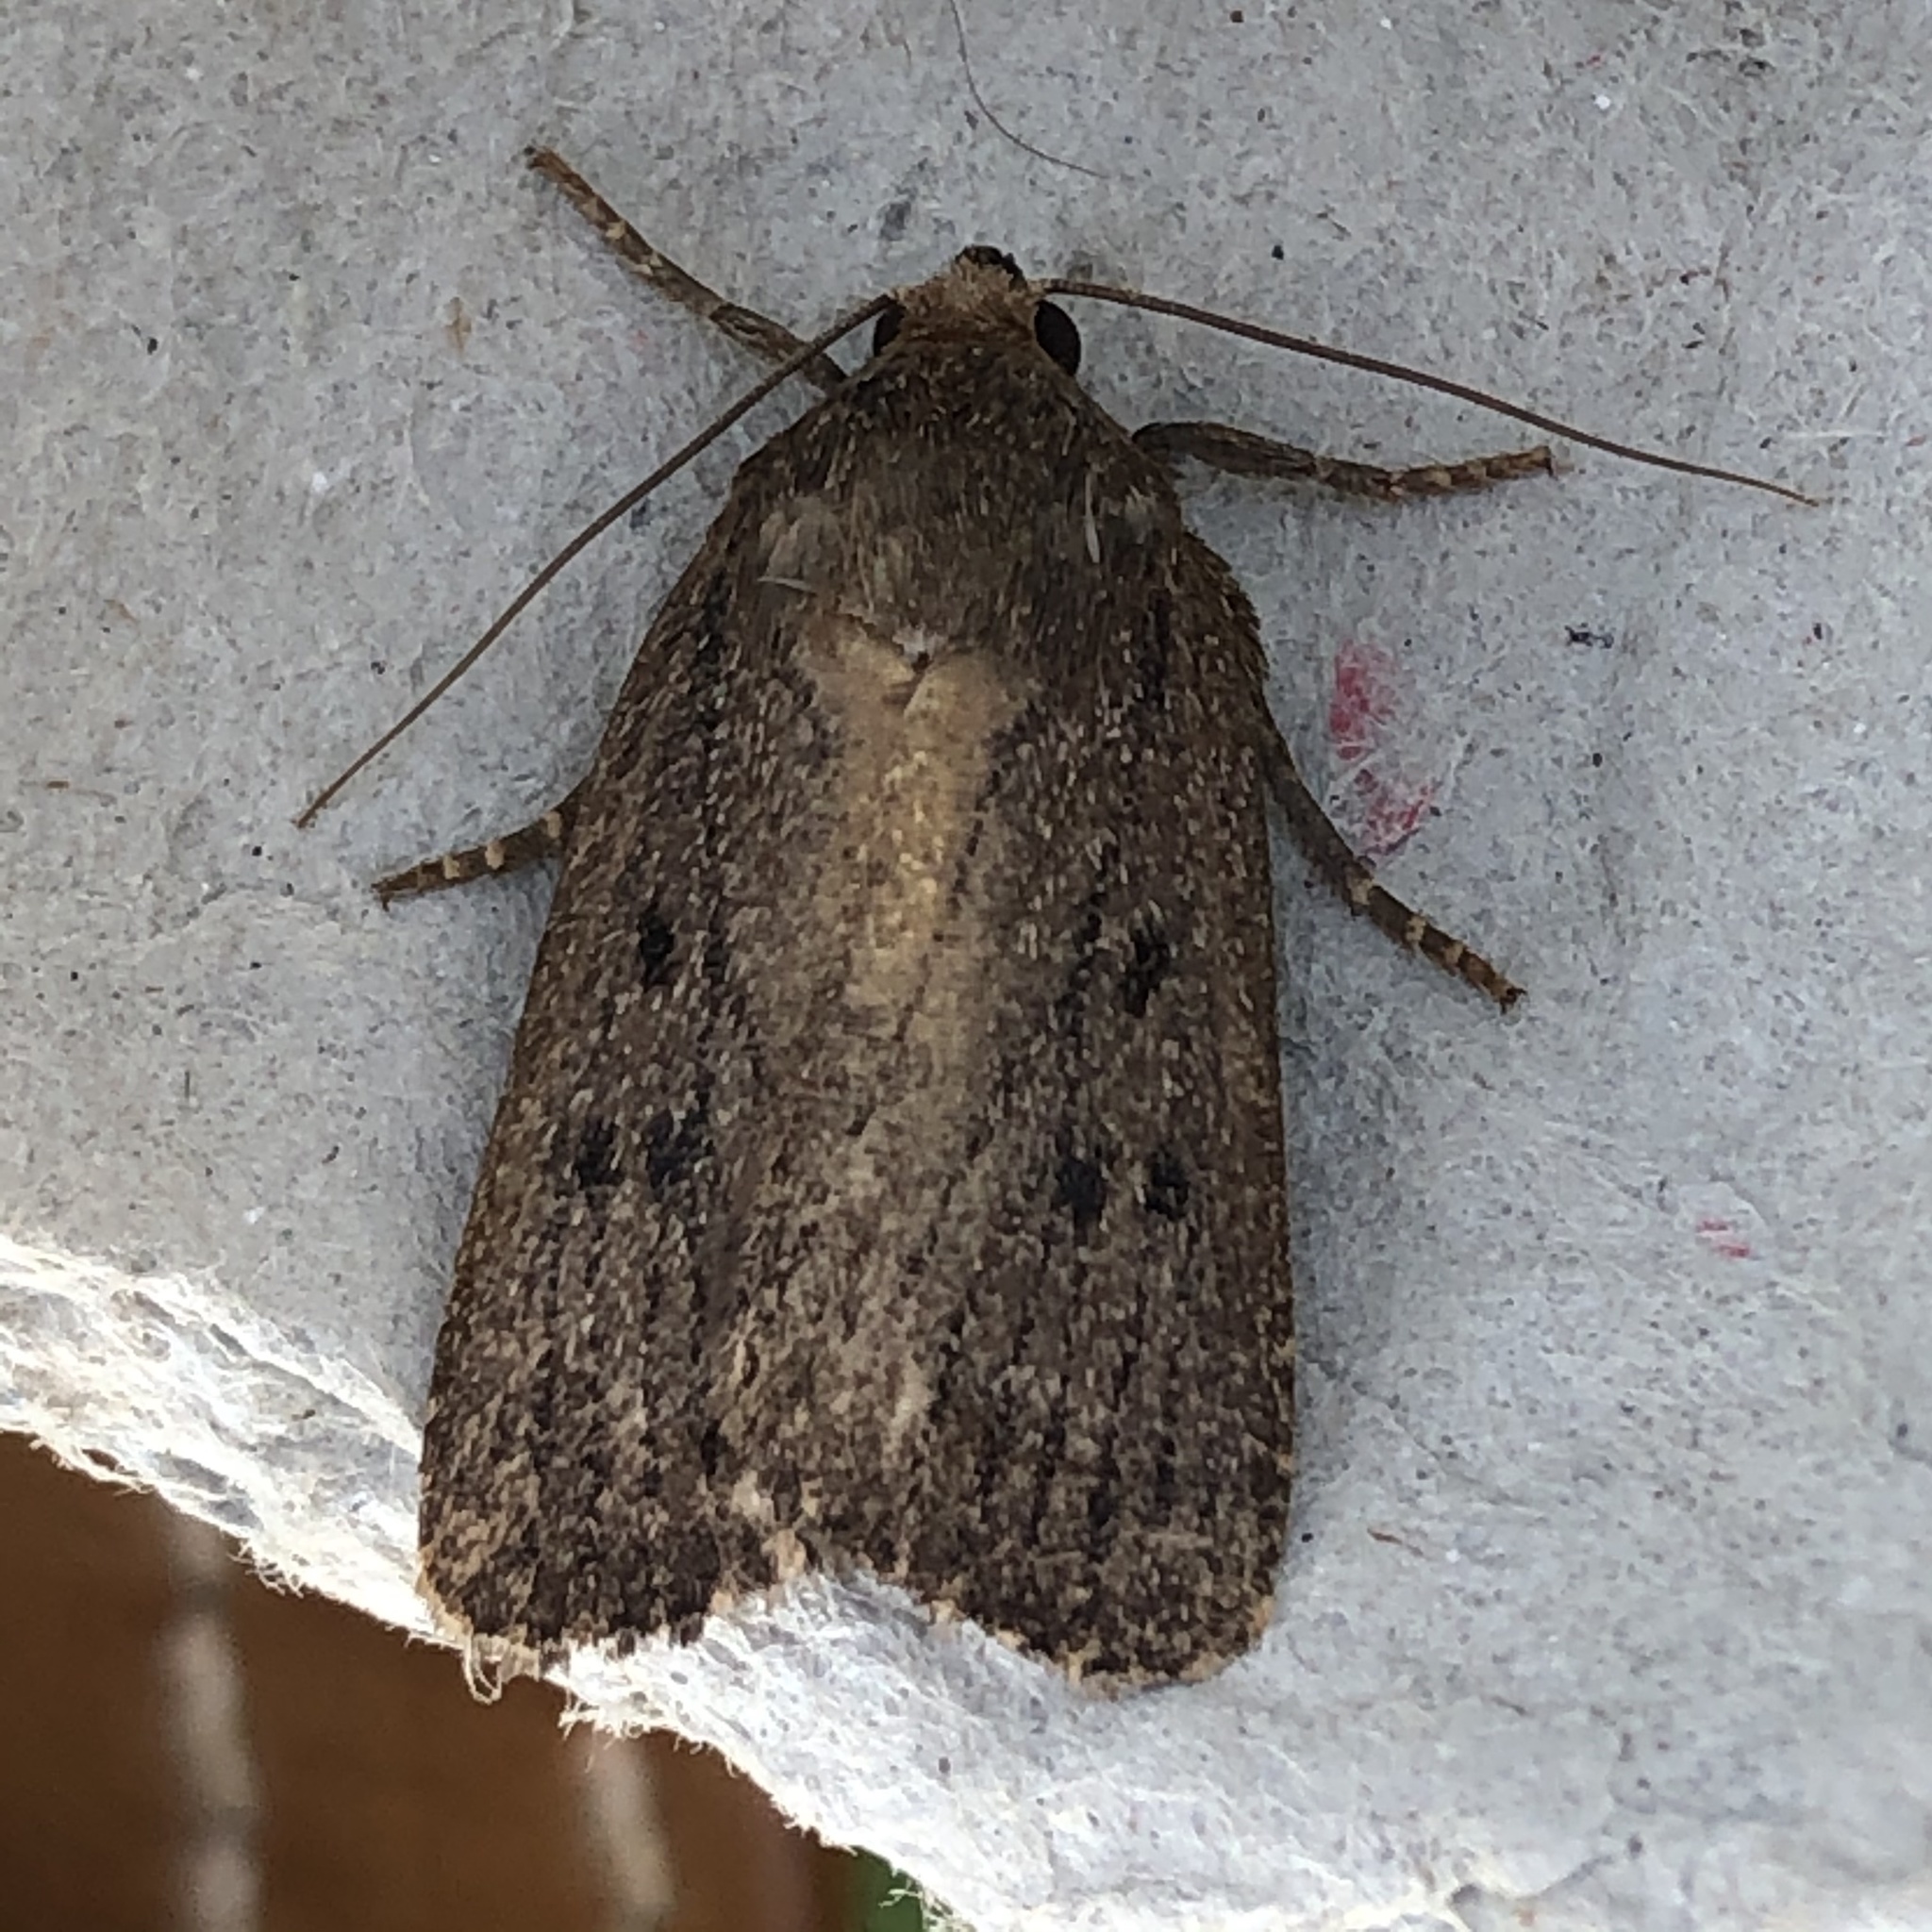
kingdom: Animalia
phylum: Arthropoda
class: Insecta
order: Lepidoptera
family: Noctuidae
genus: Amphipyra
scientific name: Amphipyra tragopoginis
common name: Mouse moth
